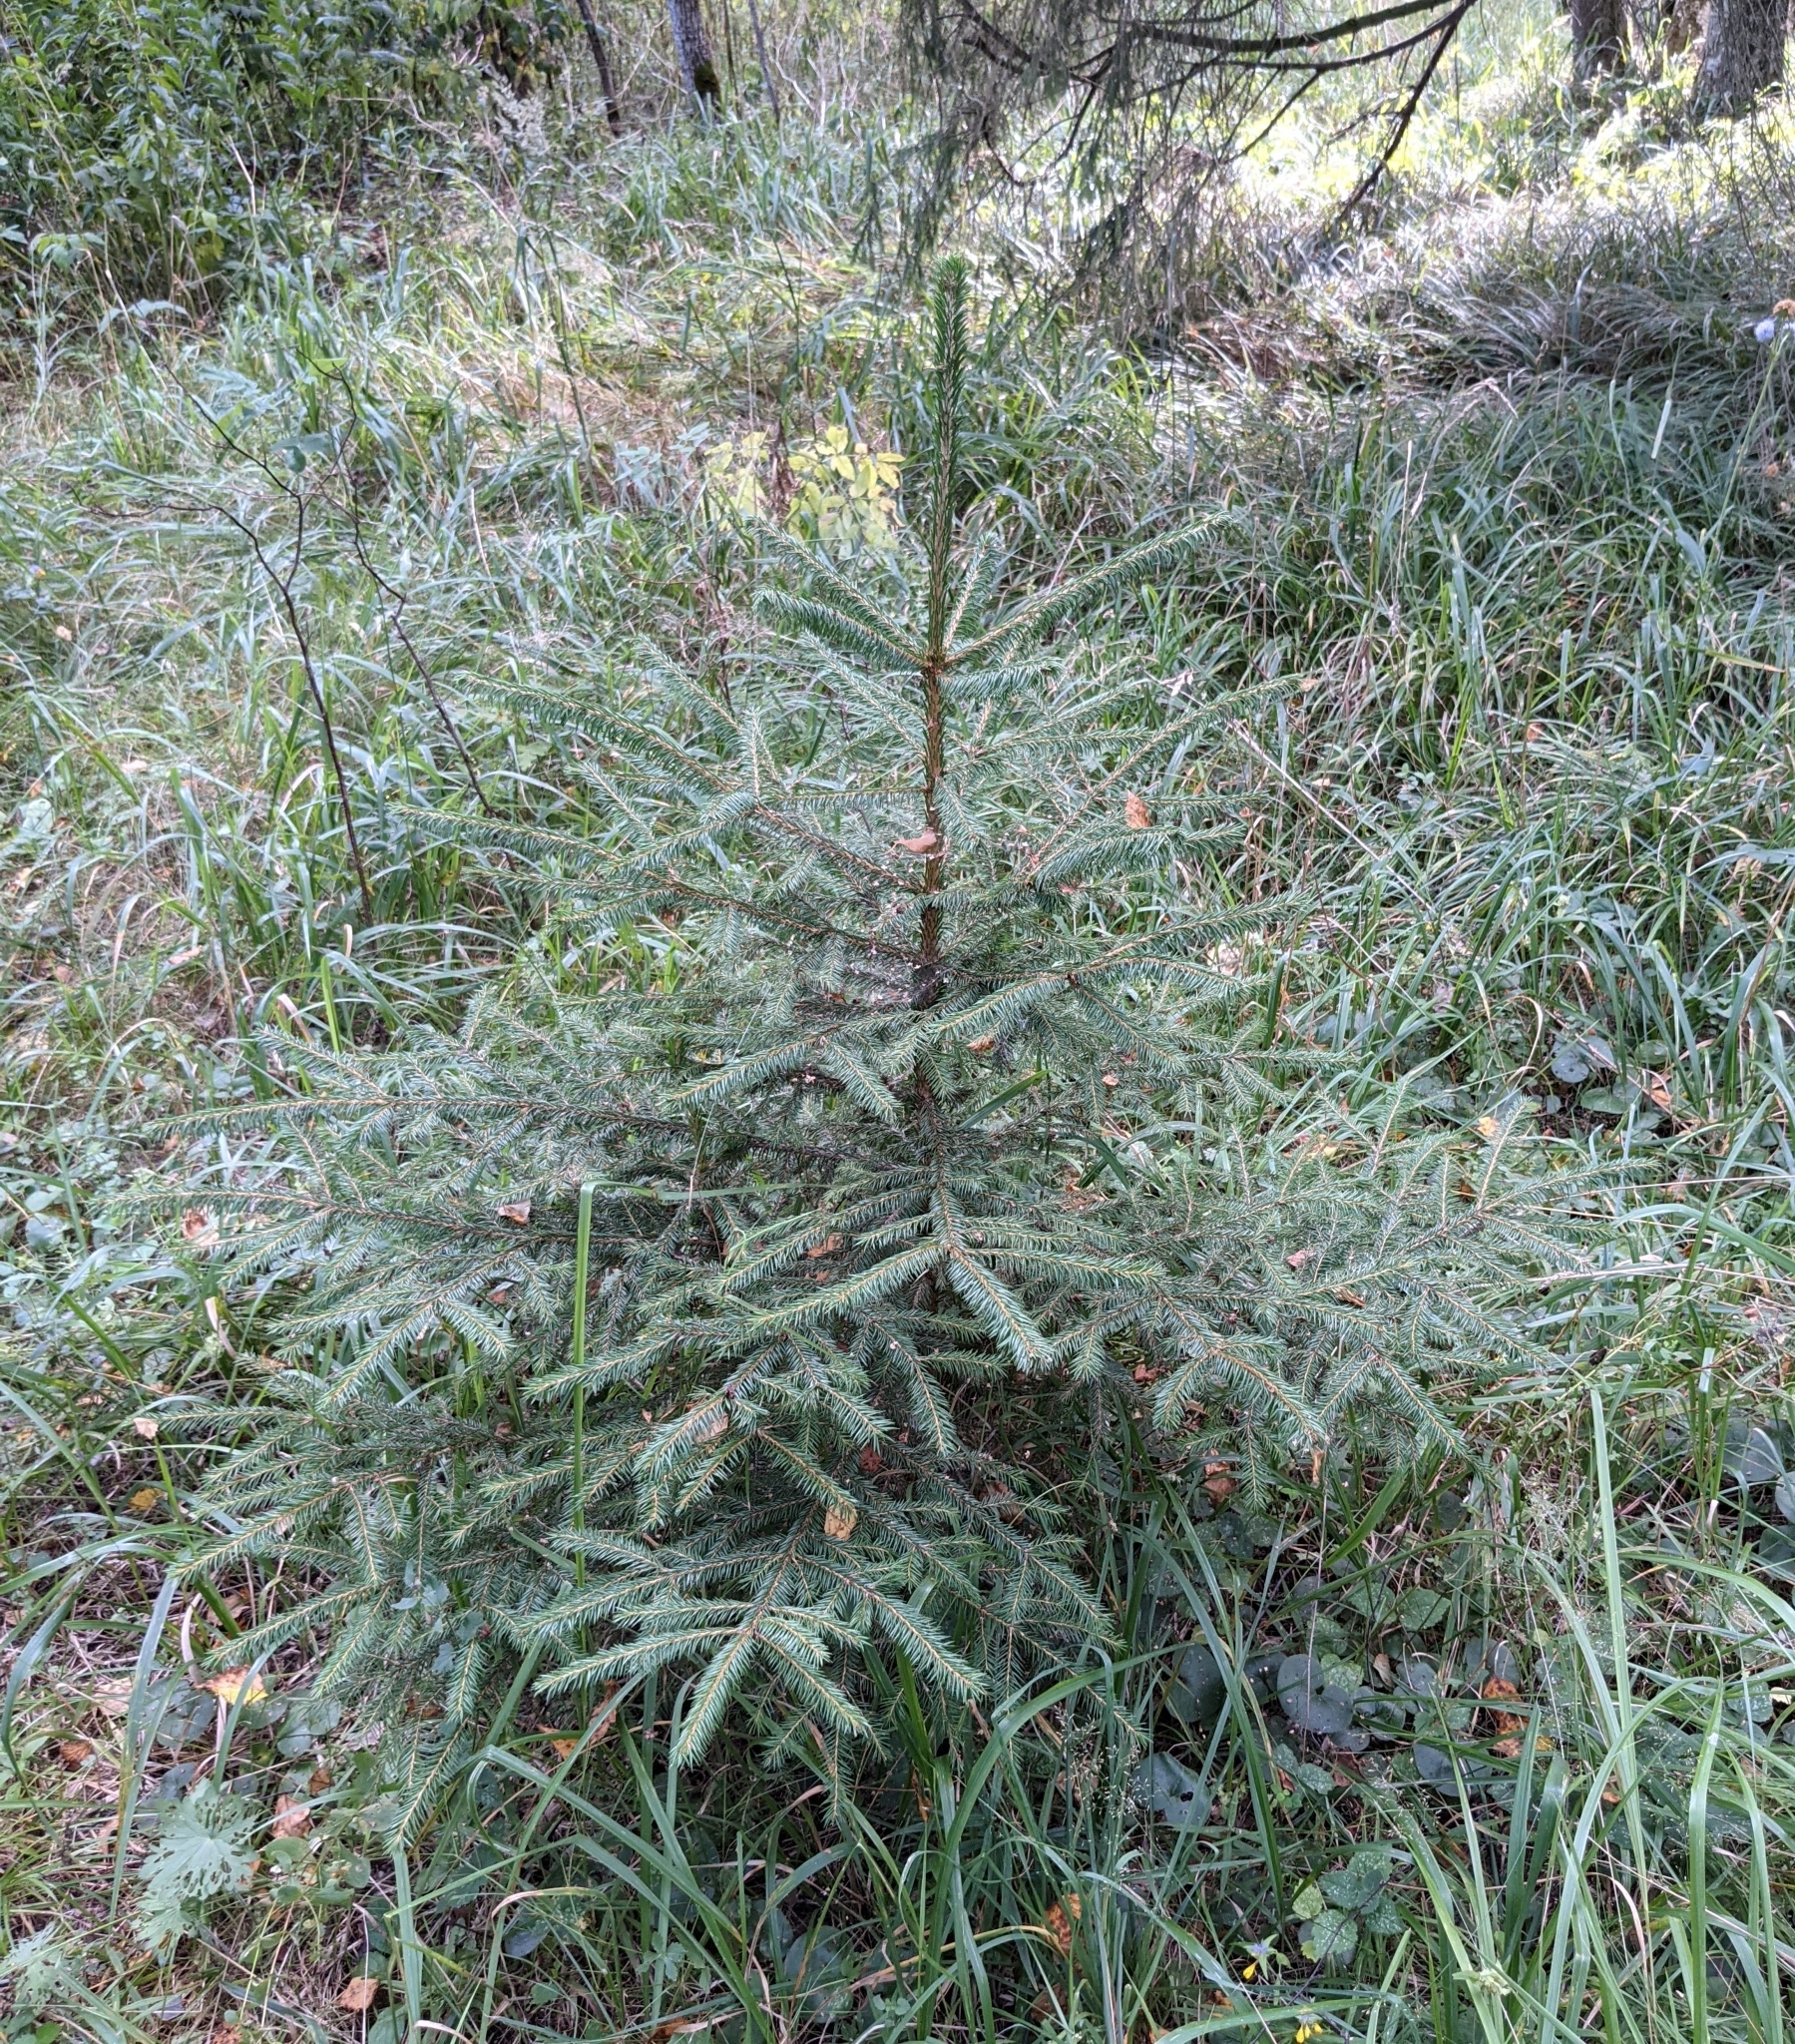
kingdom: Plantae
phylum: Tracheophyta
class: Pinopsida
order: Pinales
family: Pinaceae
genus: Picea
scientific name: Picea abies
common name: Norway spruce
